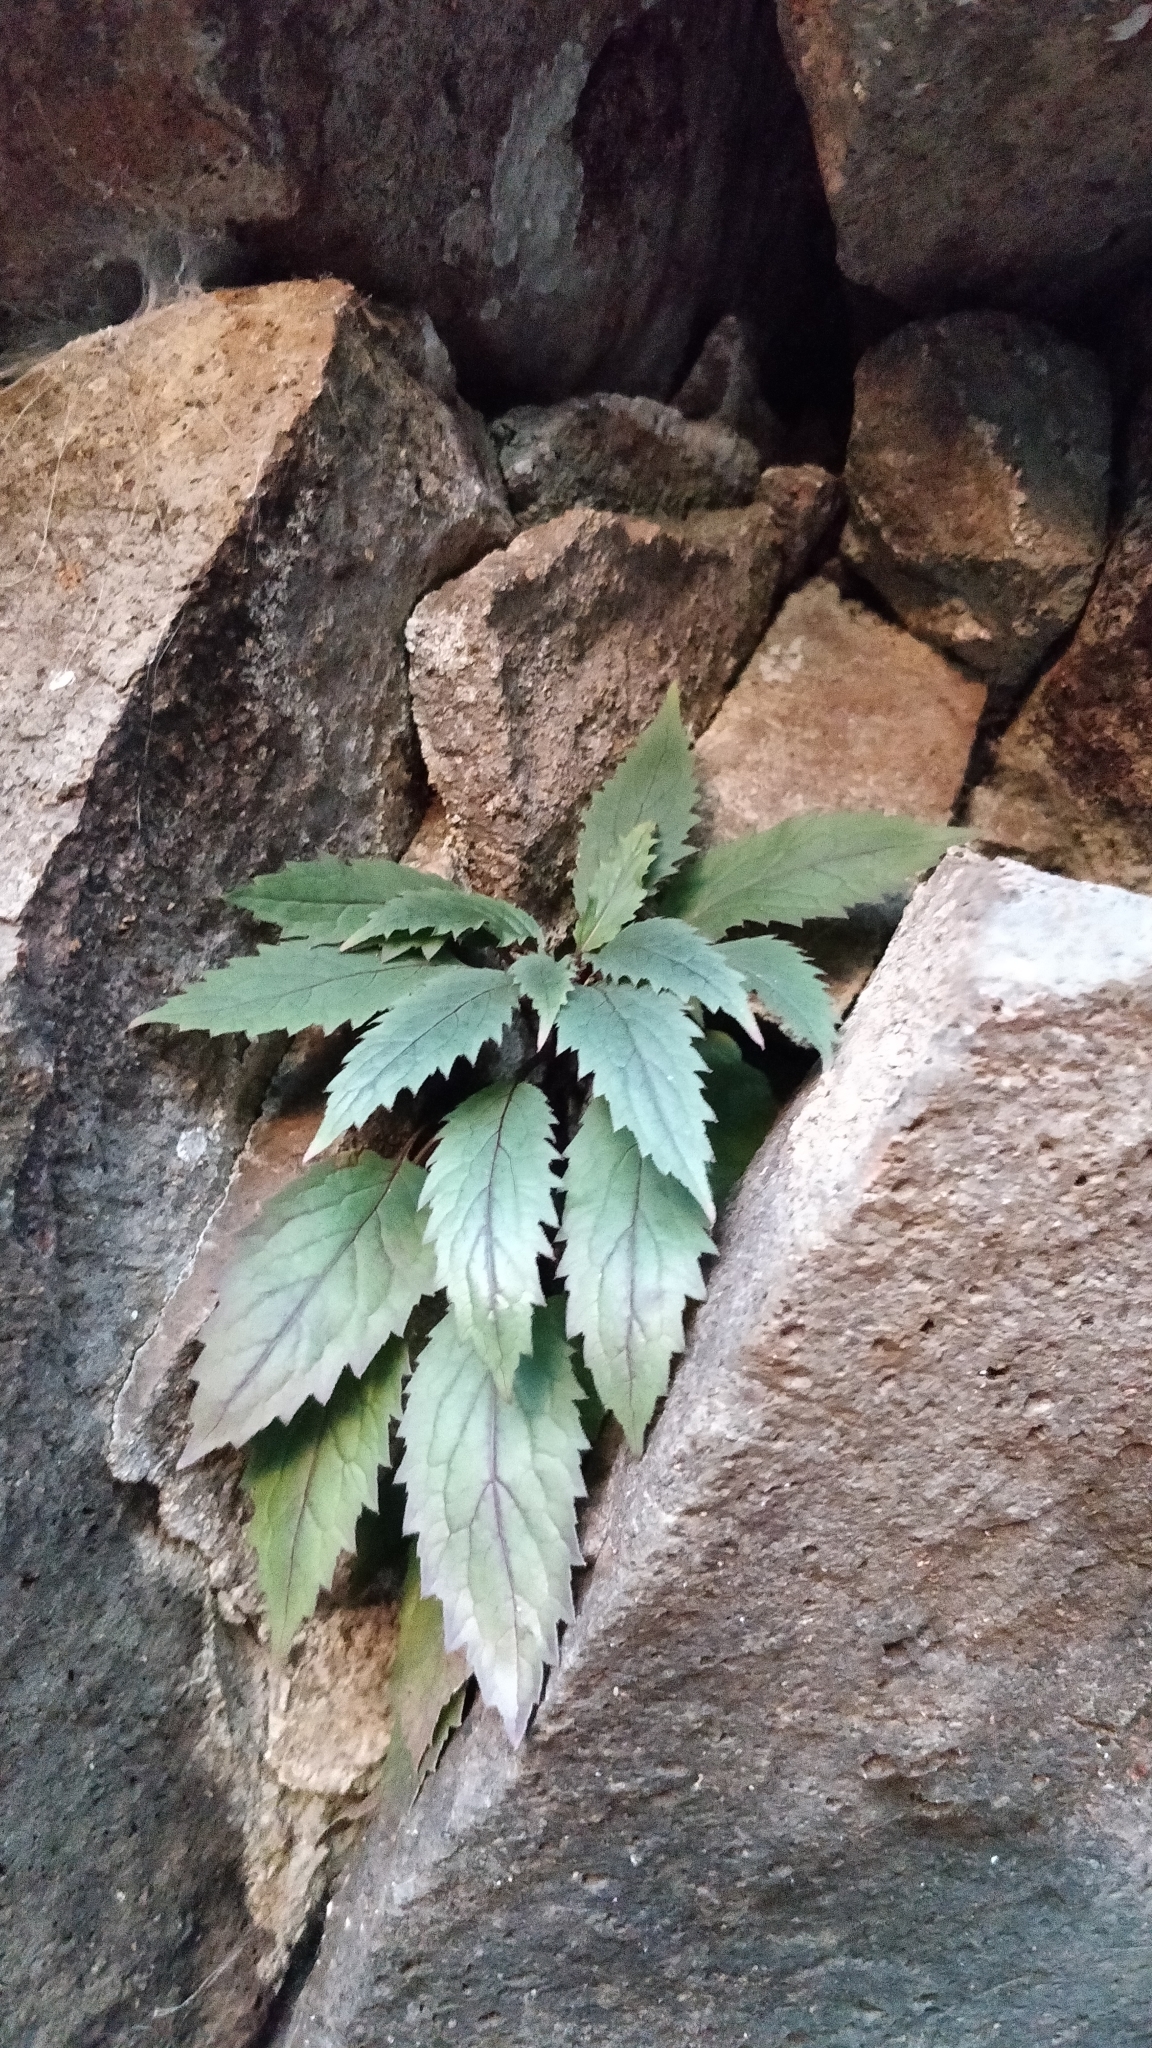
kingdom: Plantae
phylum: Tracheophyta
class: Magnoliopsida
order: Asterales
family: Campanulaceae
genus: Trachelium
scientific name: Trachelium caeruleum
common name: Throatwort
